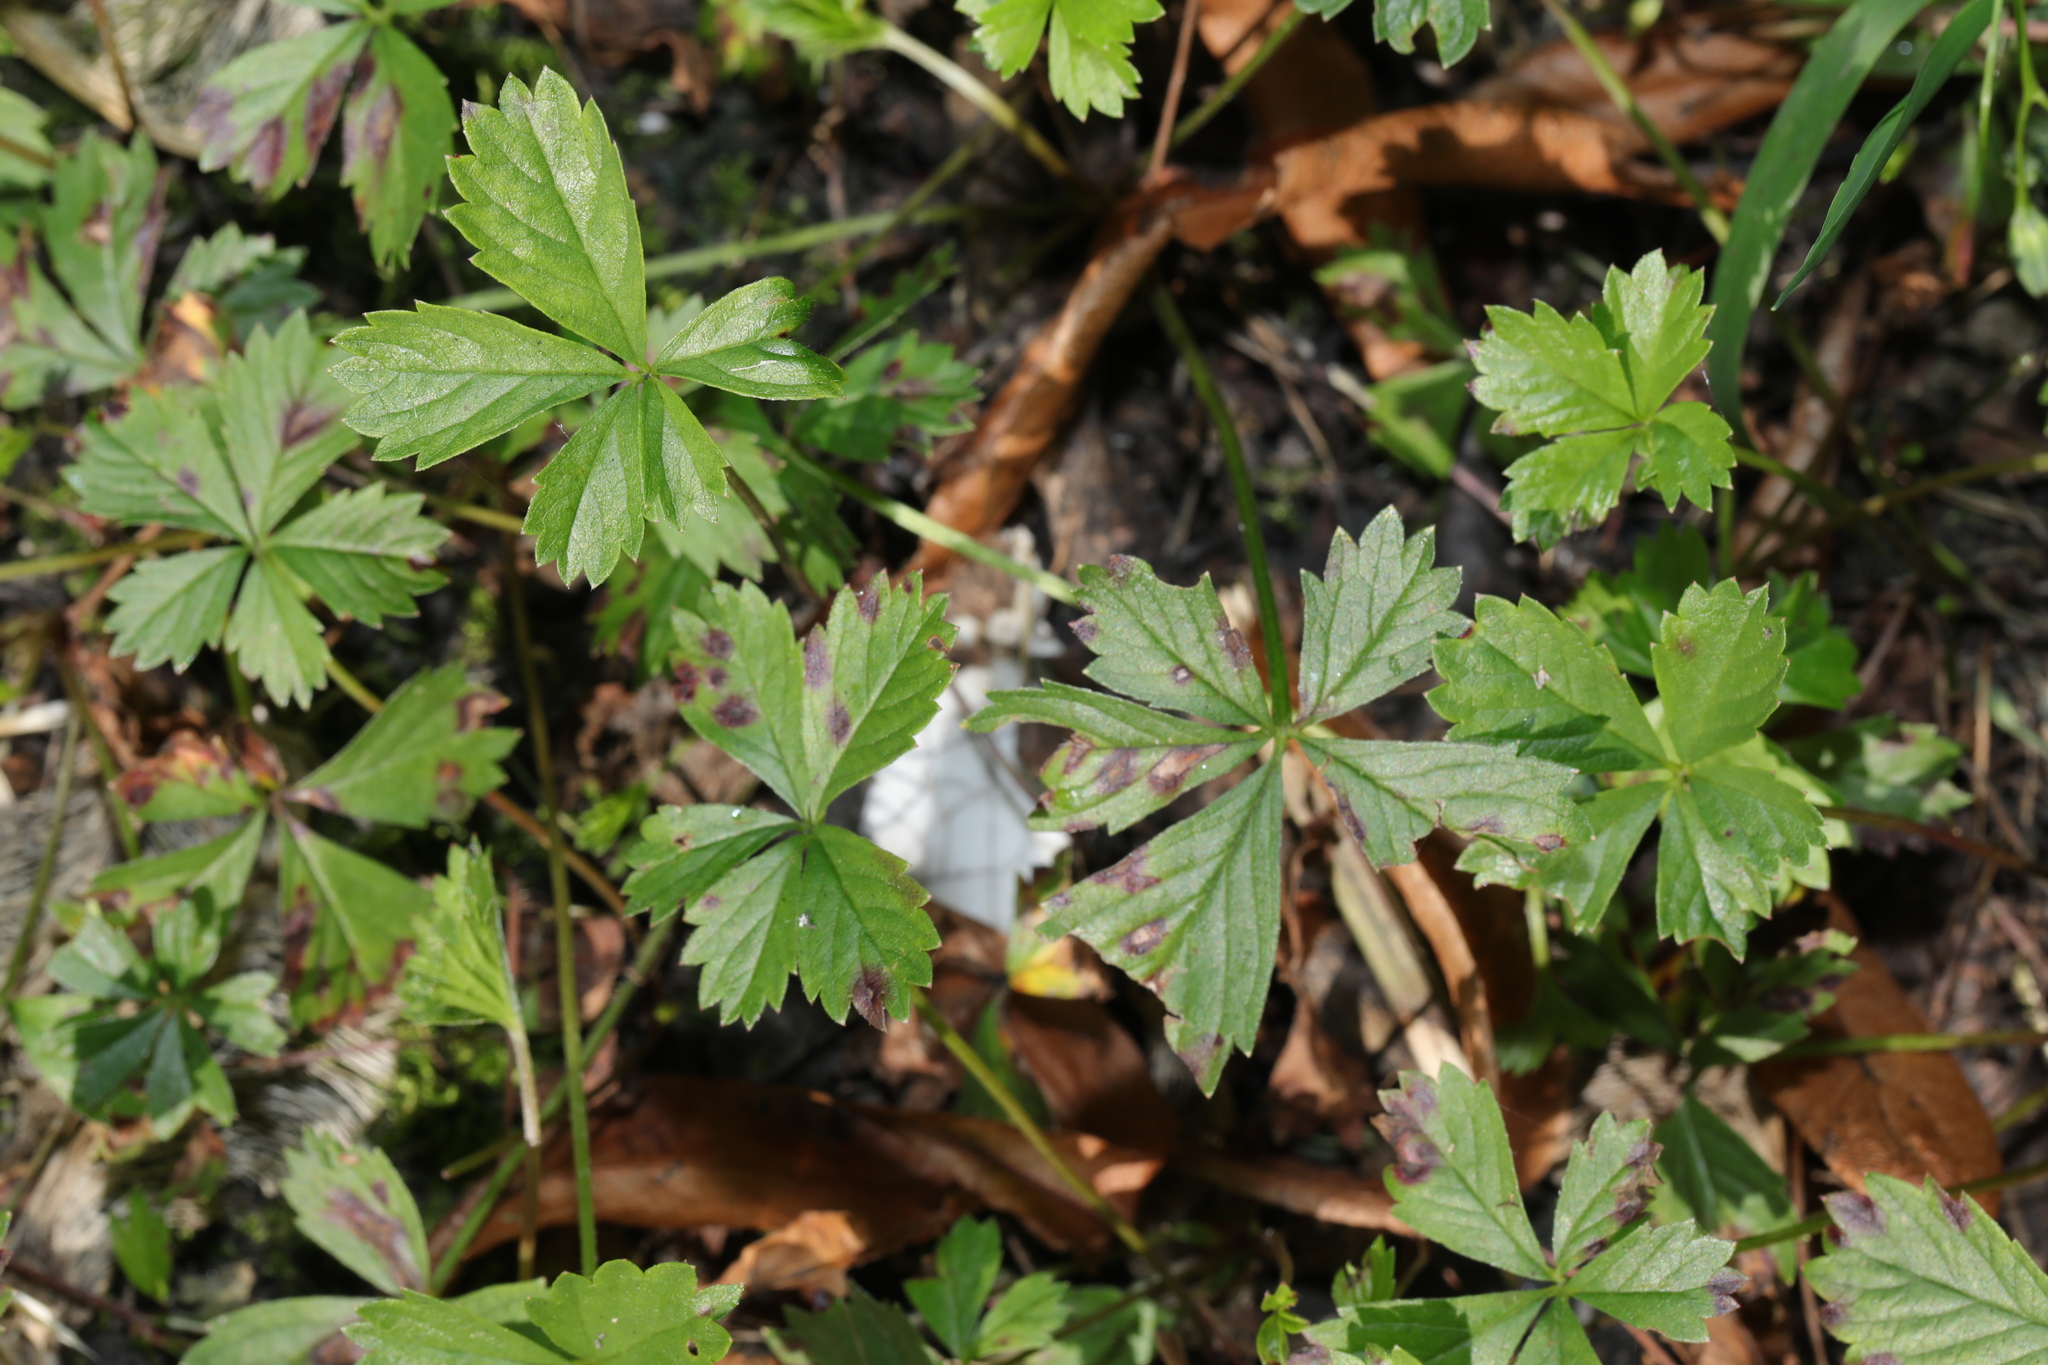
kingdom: Plantae
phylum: Tracheophyta
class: Magnoliopsida
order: Rosales
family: Rosaceae
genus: Potentilla
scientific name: Potentilla mixta
